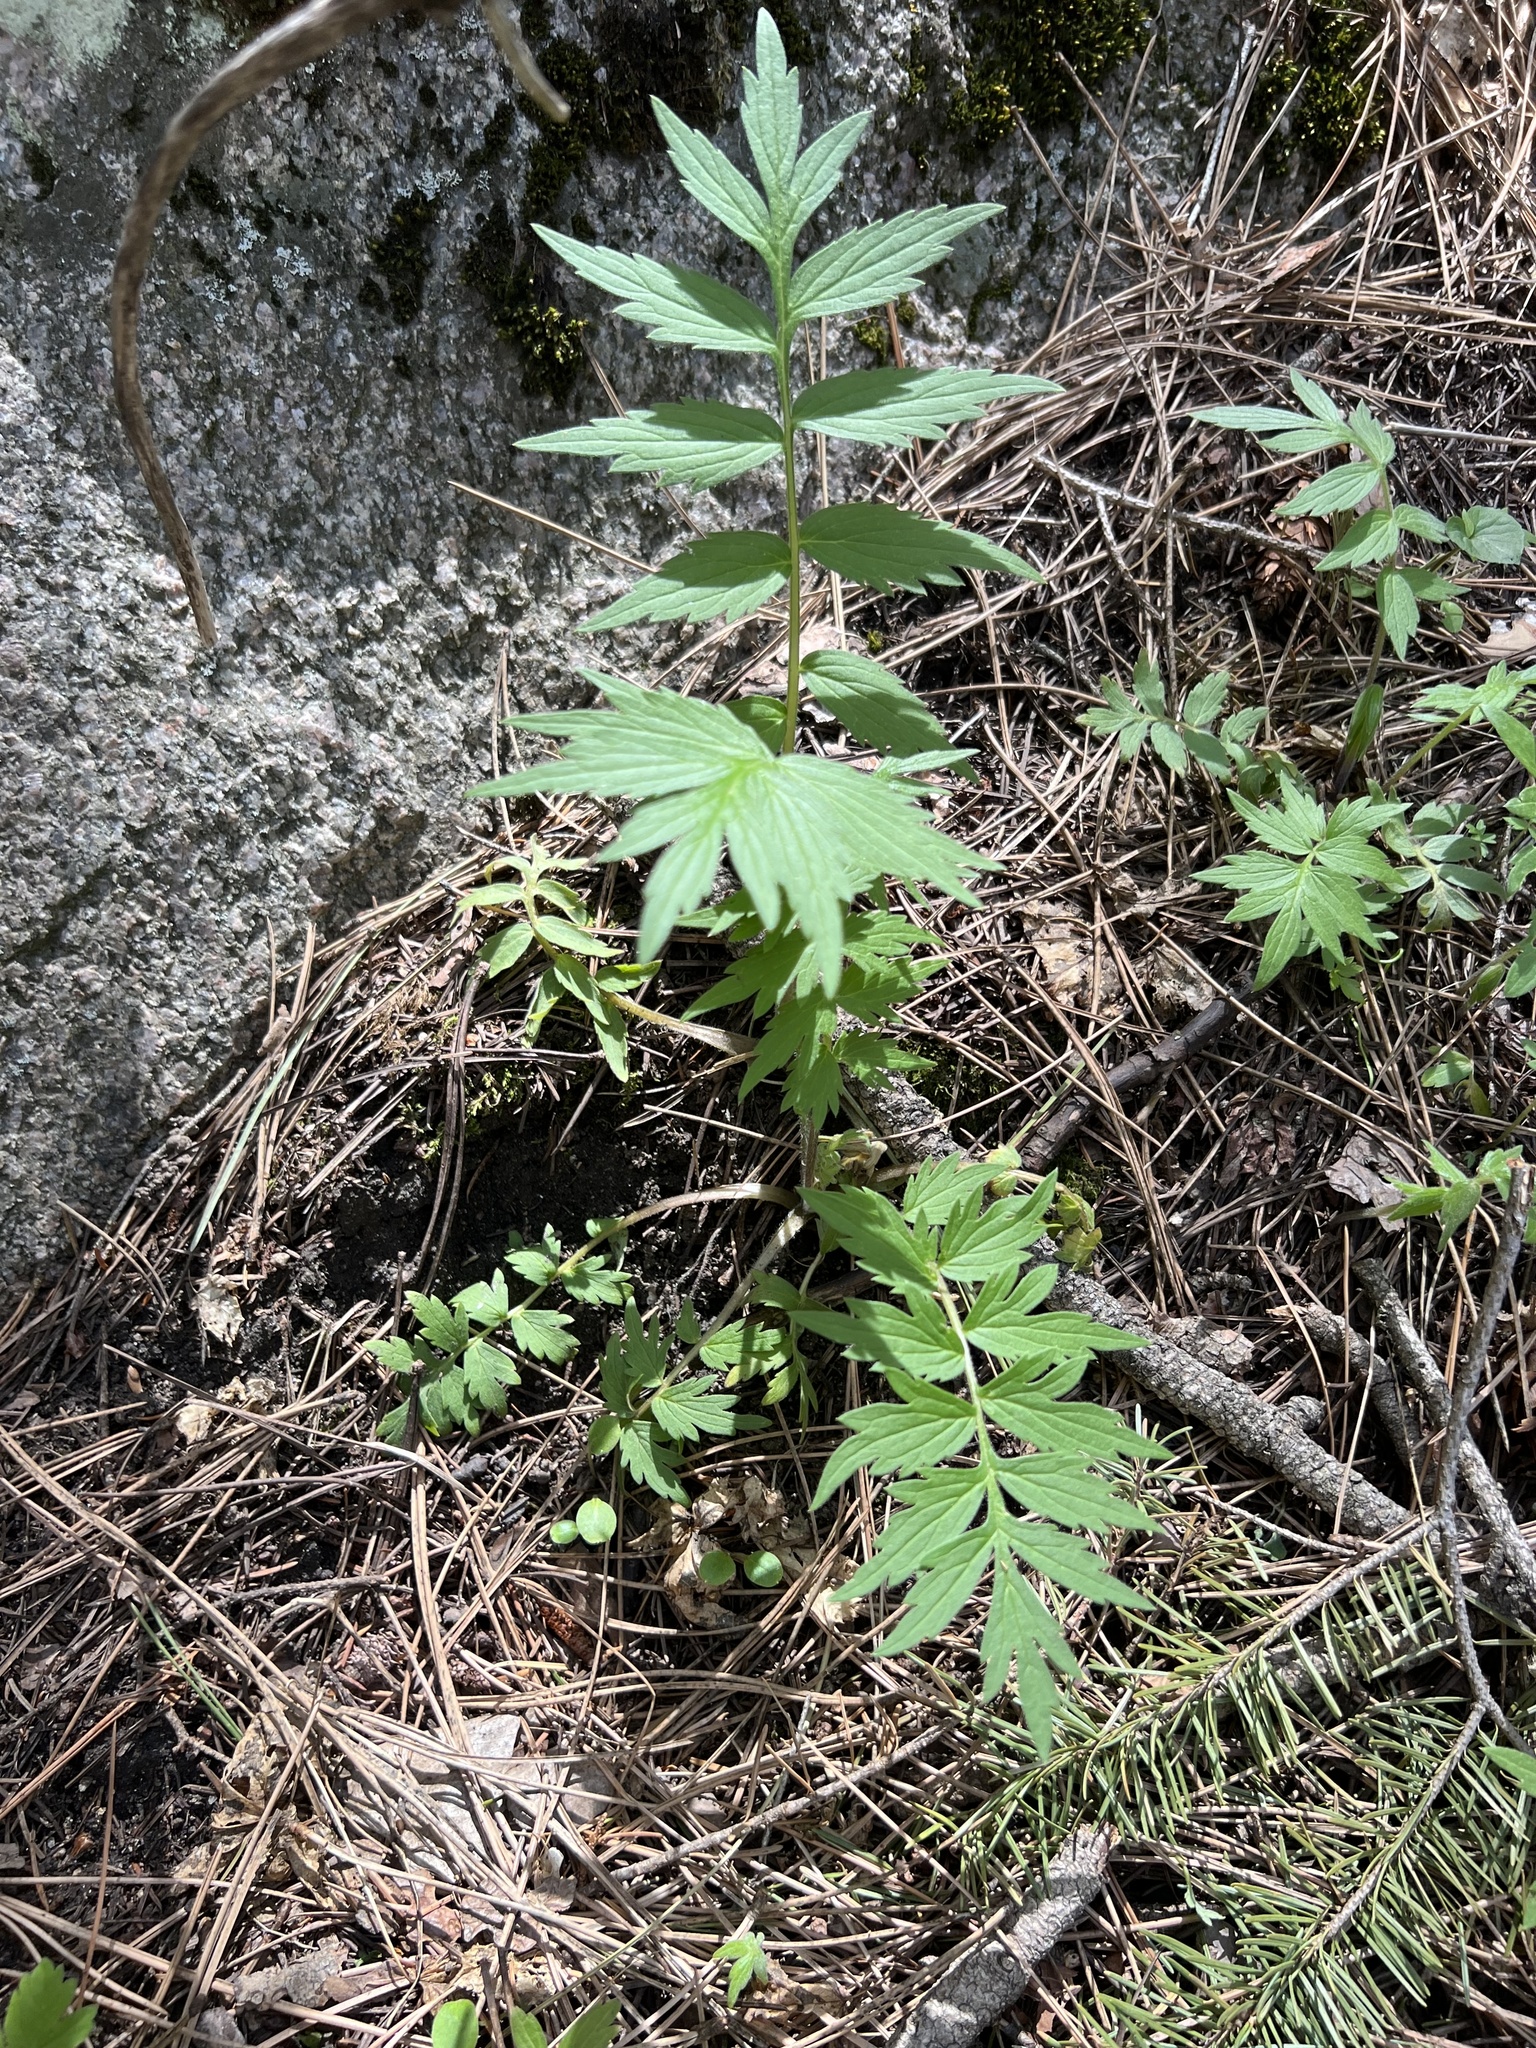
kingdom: Plantae
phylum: Tracheophyta
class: Magnoliopsida
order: Boraginales
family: Hydrophyllaceae
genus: Hydrophyllum
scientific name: Hydrophyllum fendleri
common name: Fendler's waterleaf
